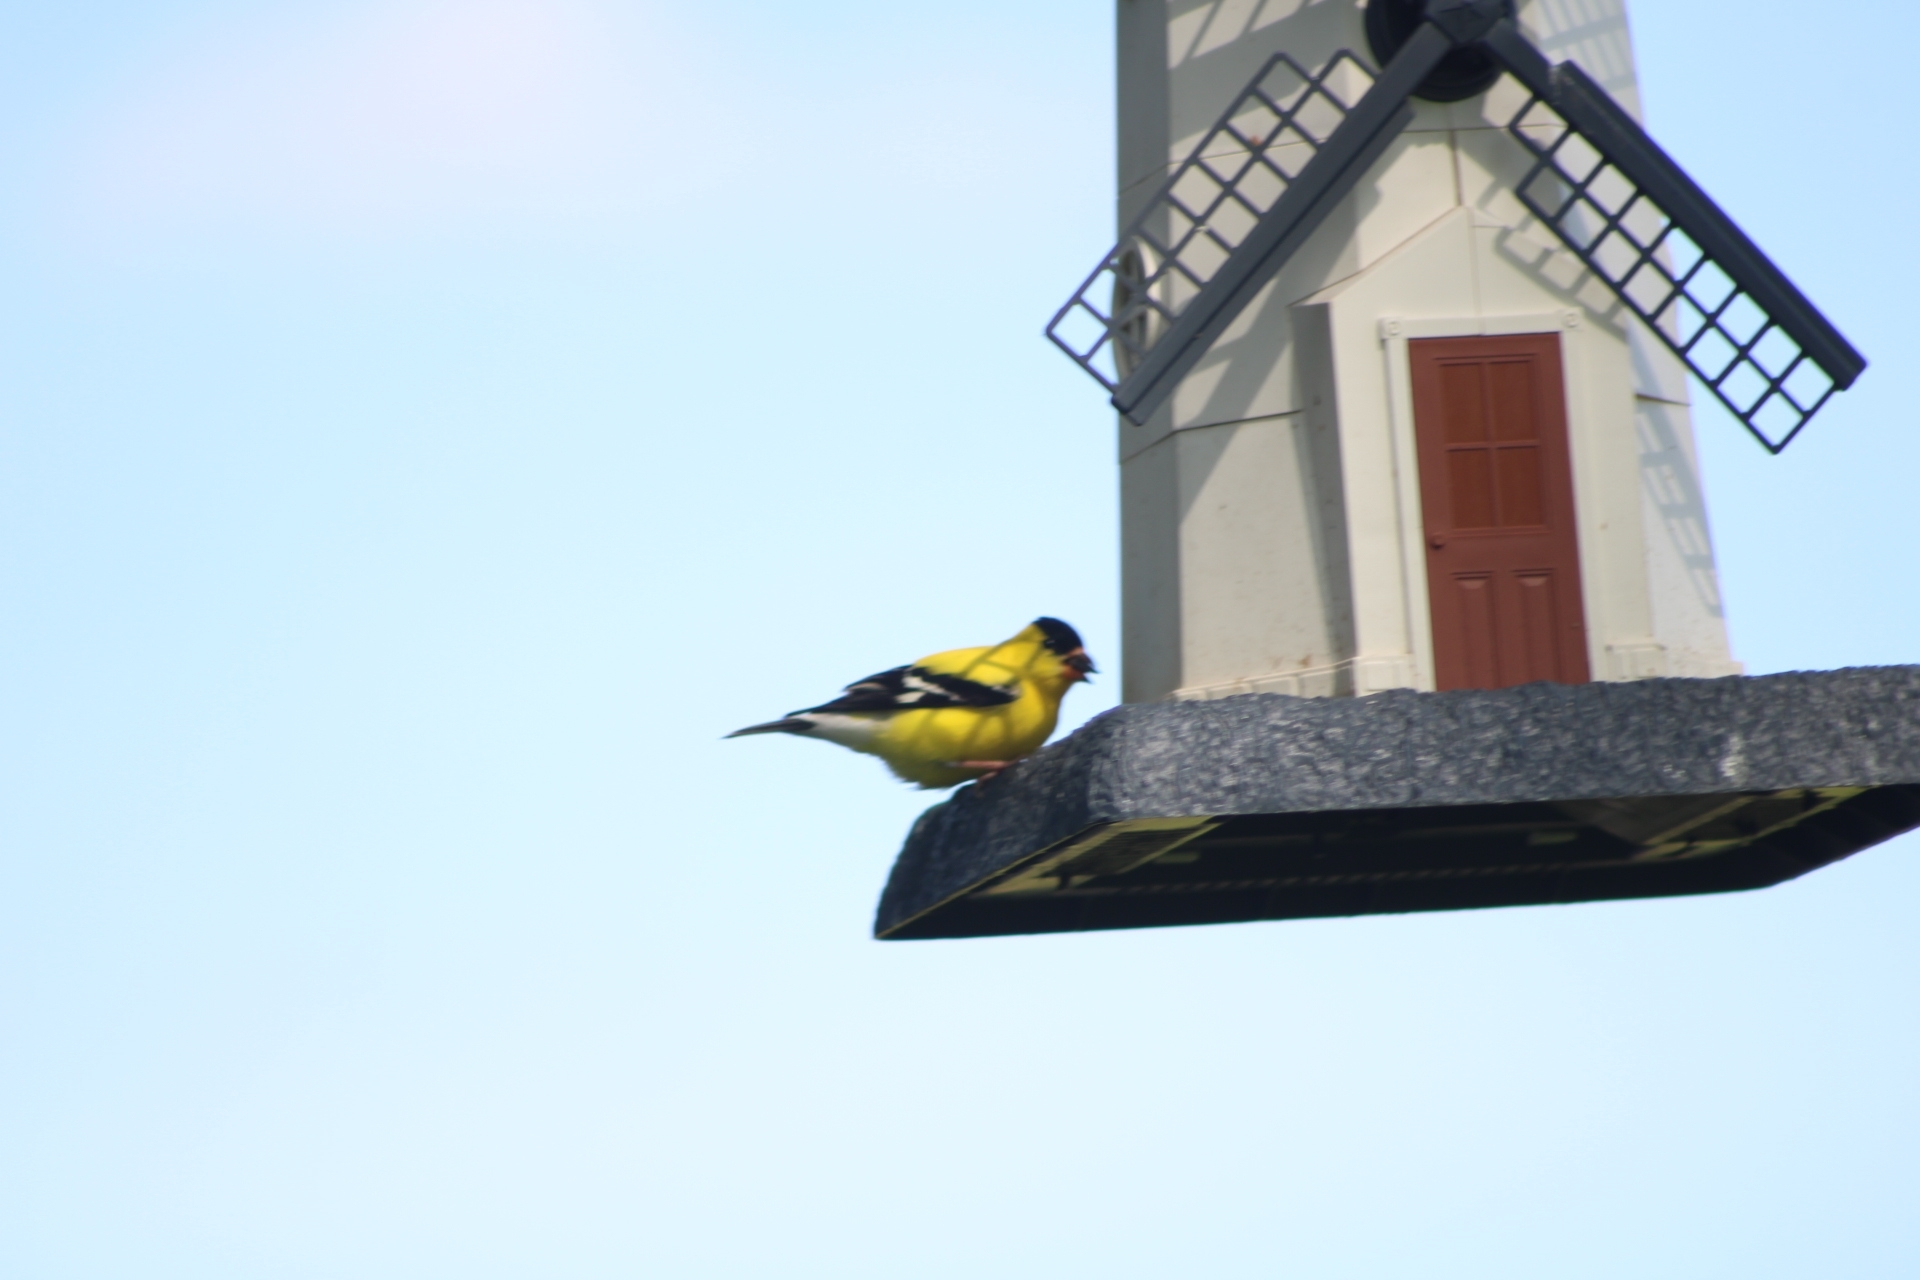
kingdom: Animalia
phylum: Chordata
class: Aves
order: Passeriformes
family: Fringillidae
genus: Spinus
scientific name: Spinus tristis
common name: American goldfinch
